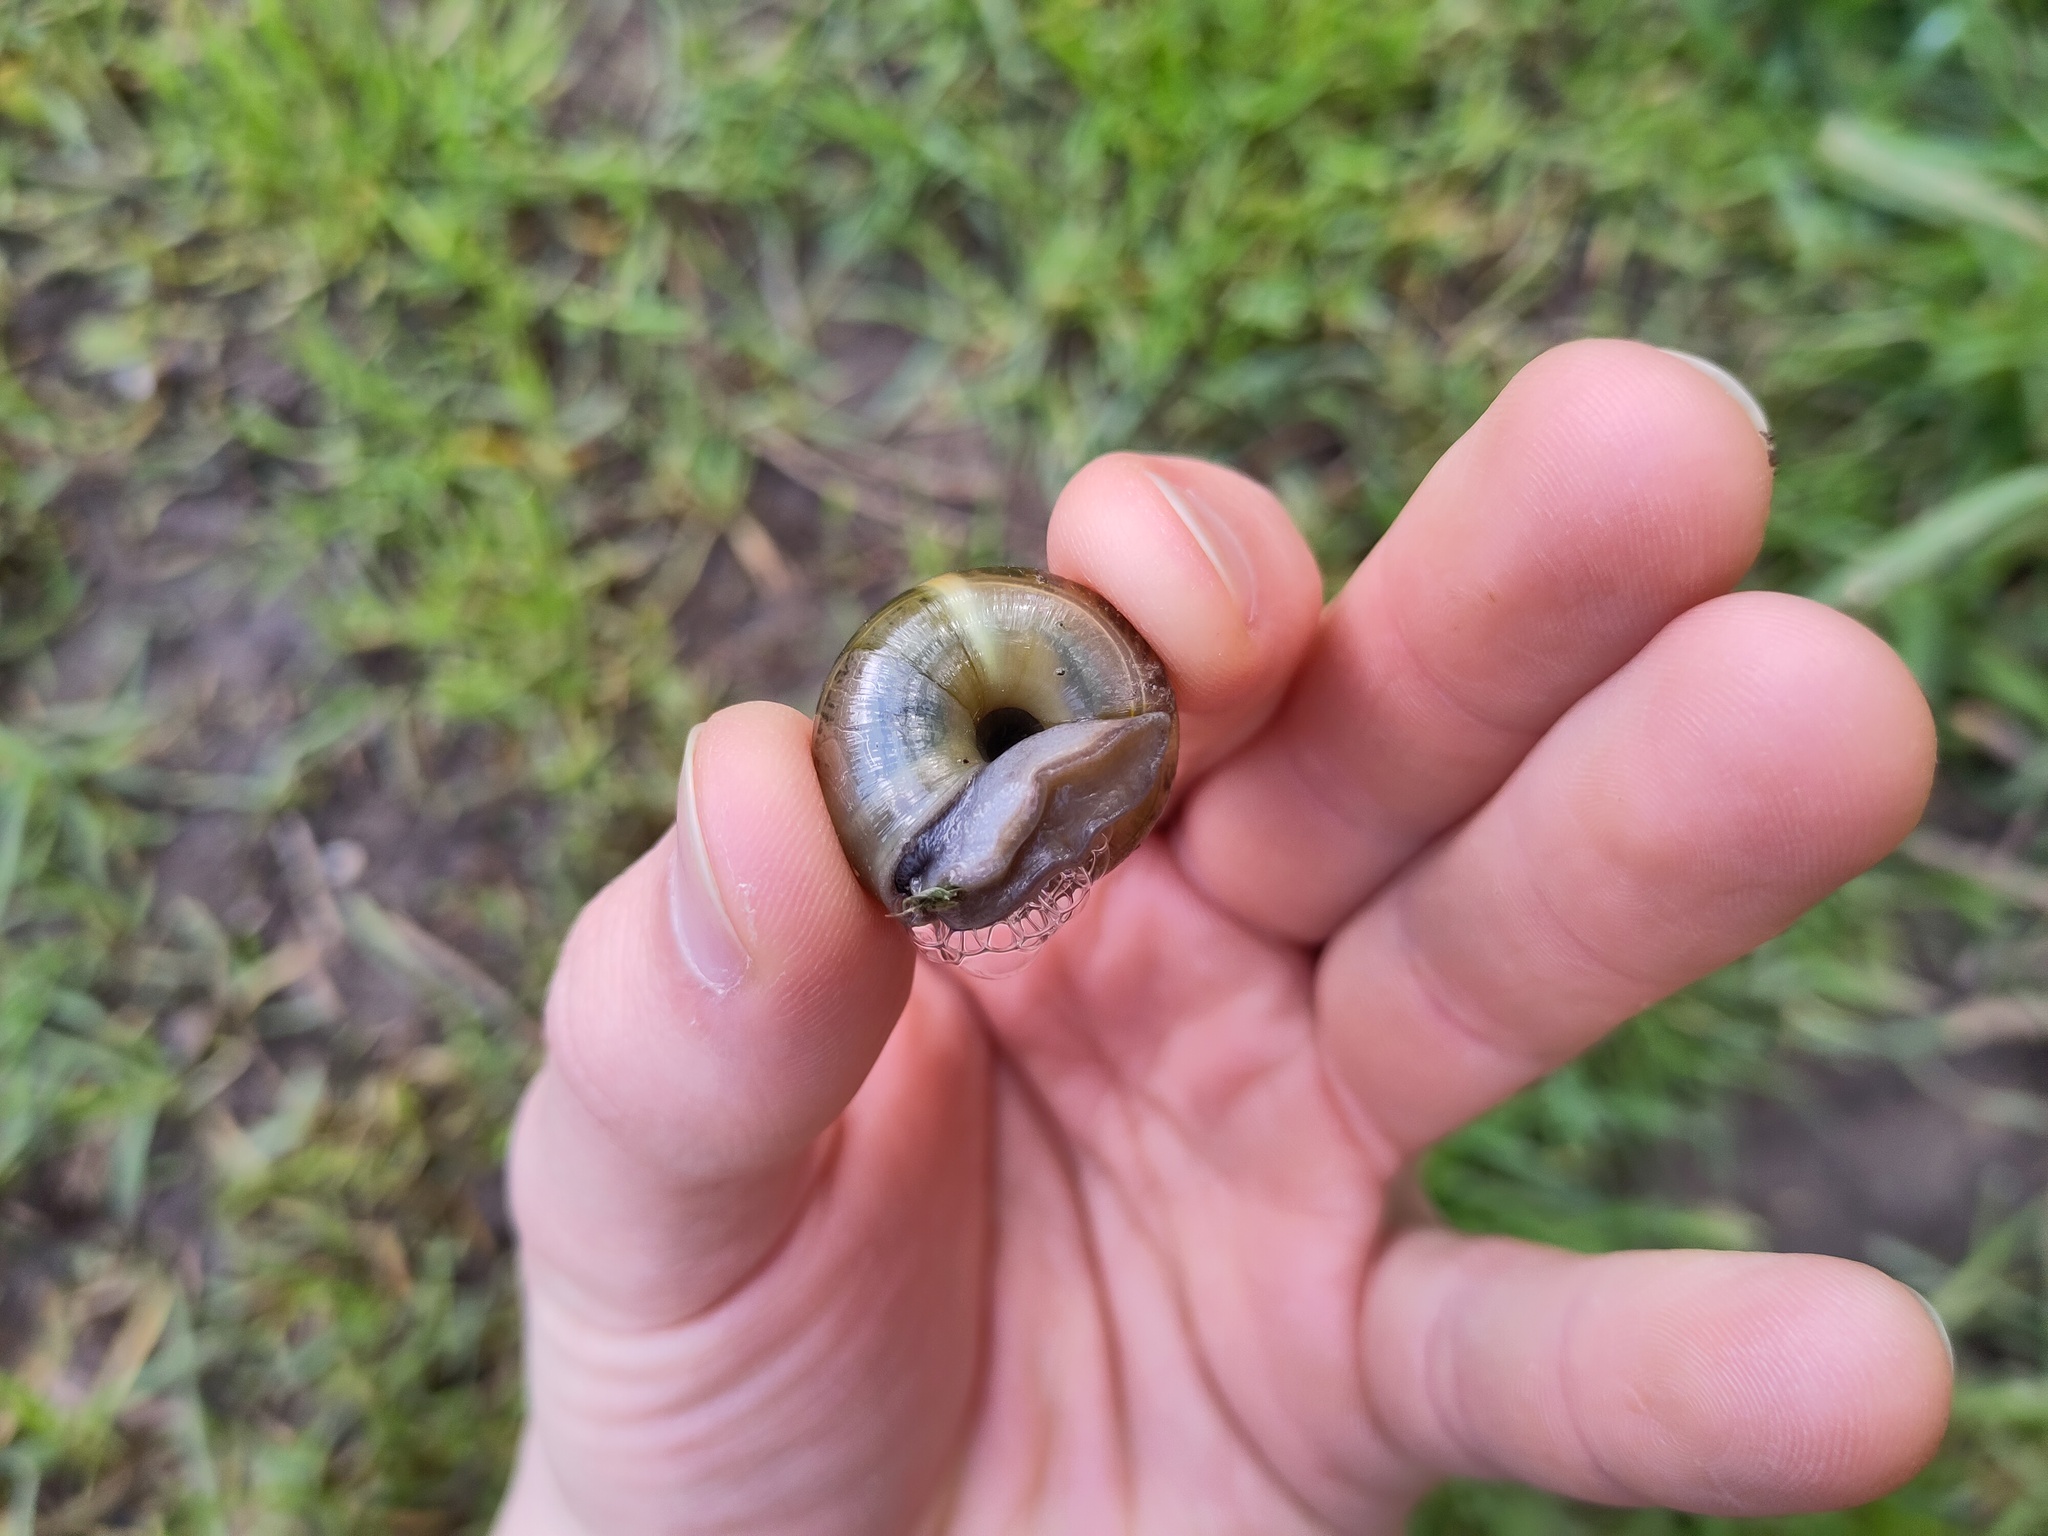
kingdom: Animalia
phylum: Mollusca
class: Gastropoda
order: Stylommatophora
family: Zonitidae
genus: Aegopis
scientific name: Aegopis verticillus
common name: Giant glass snail
